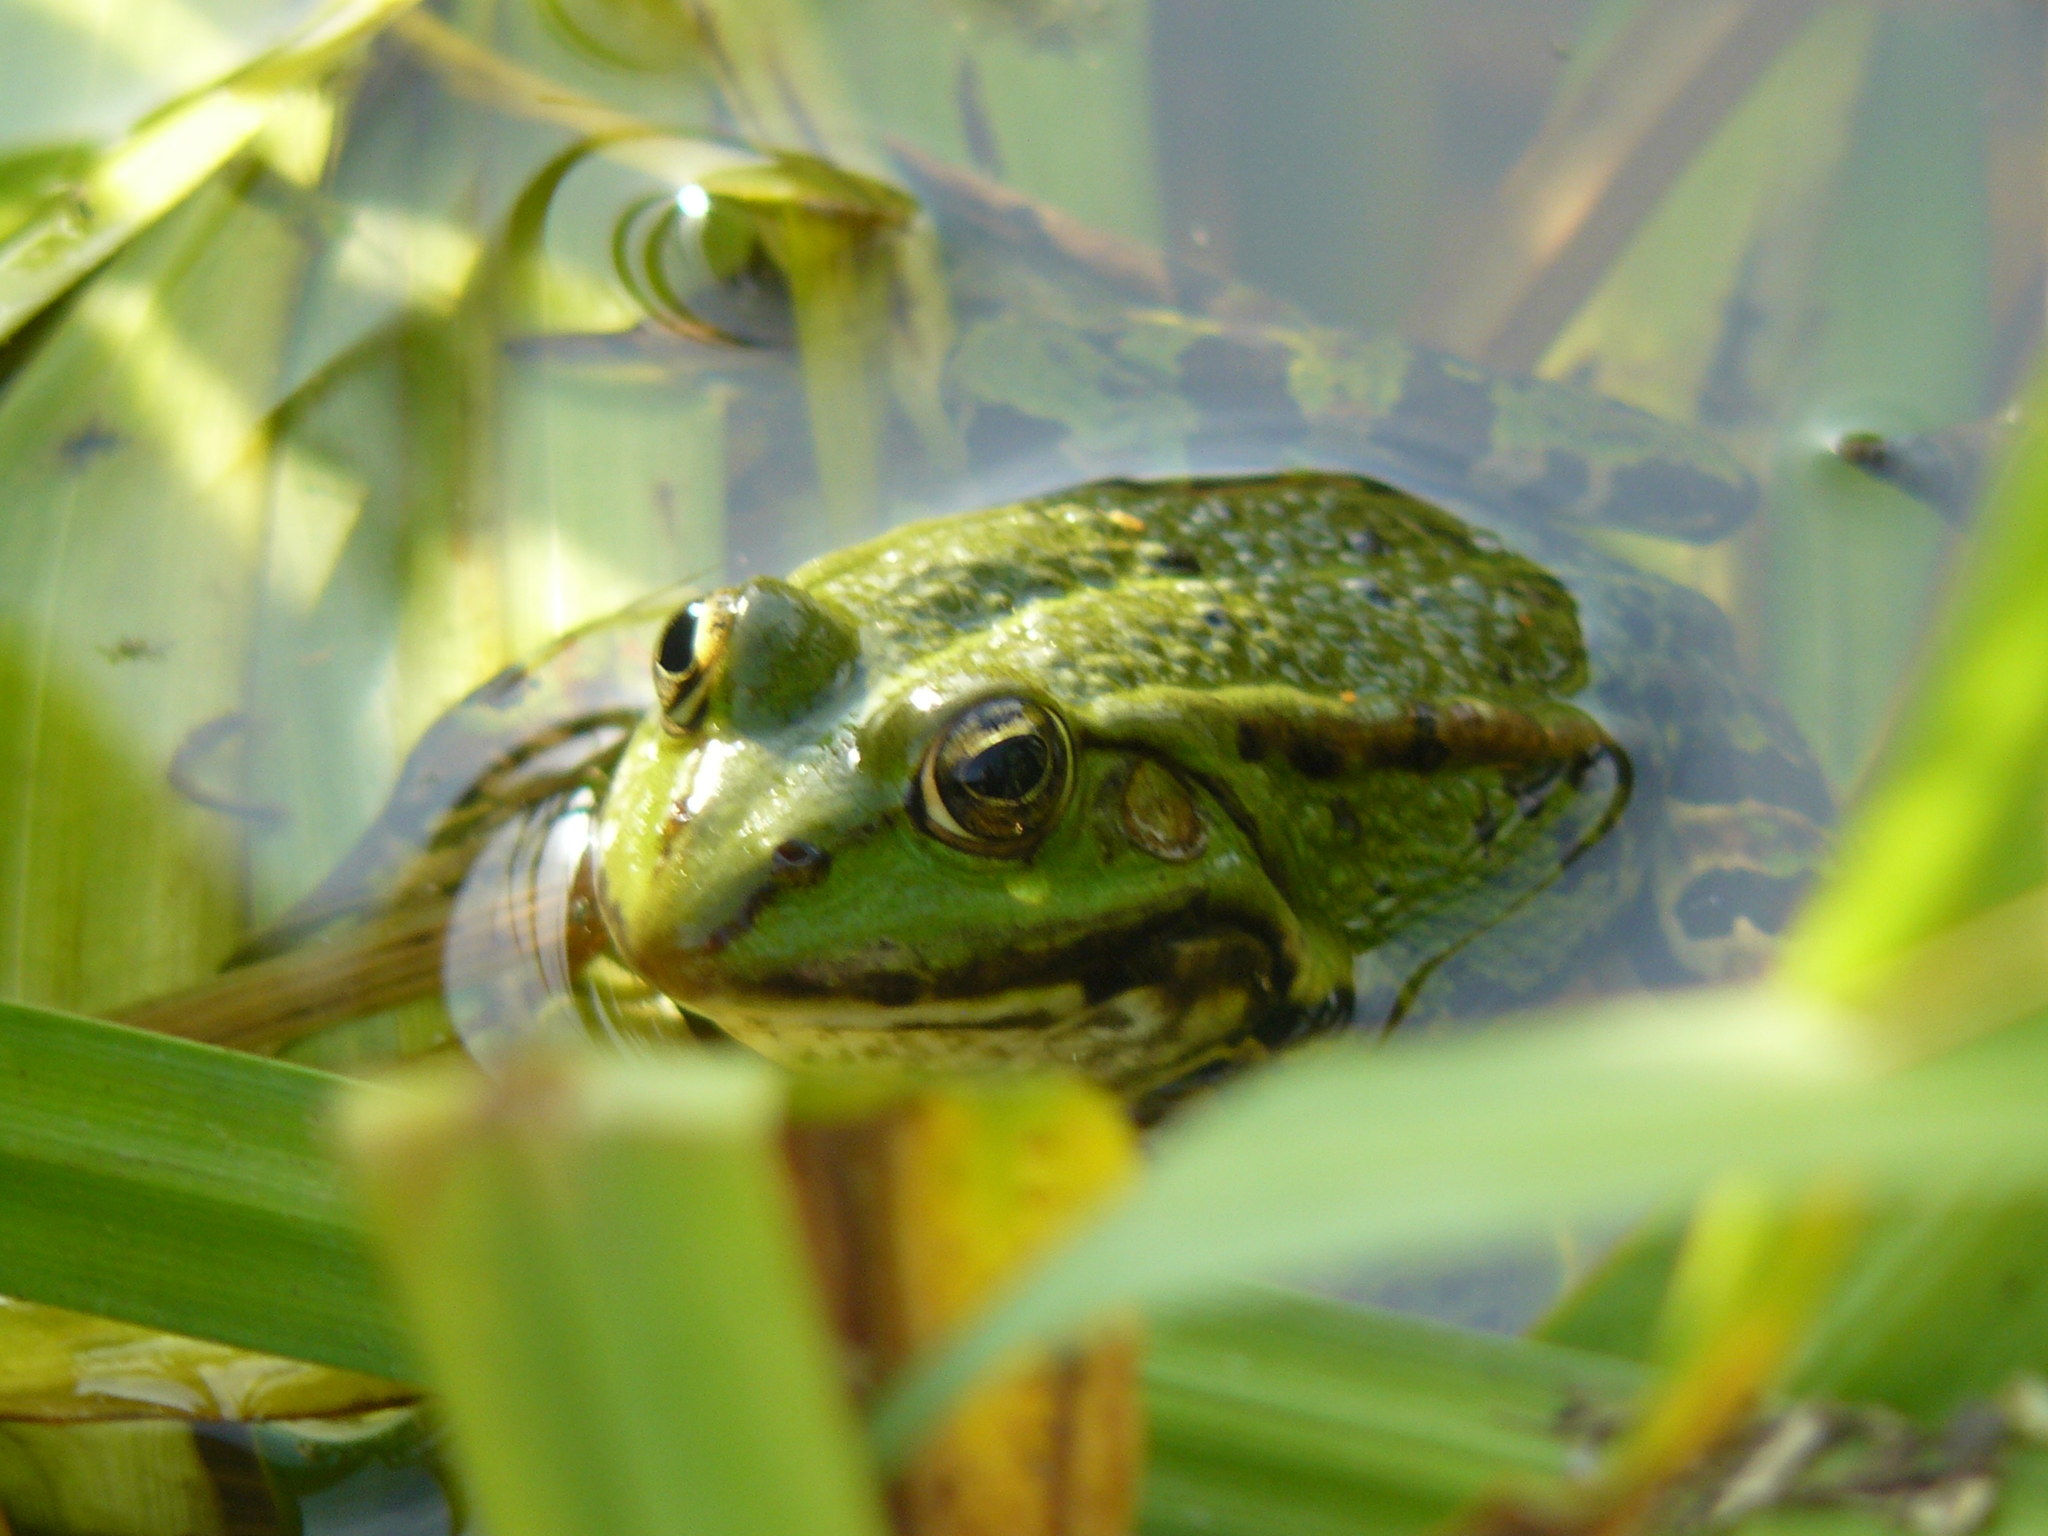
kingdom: Animalia
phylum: Chordata
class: Amphibia
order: Anura
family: Ranidae
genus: Pelophylax
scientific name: Pelophylax
